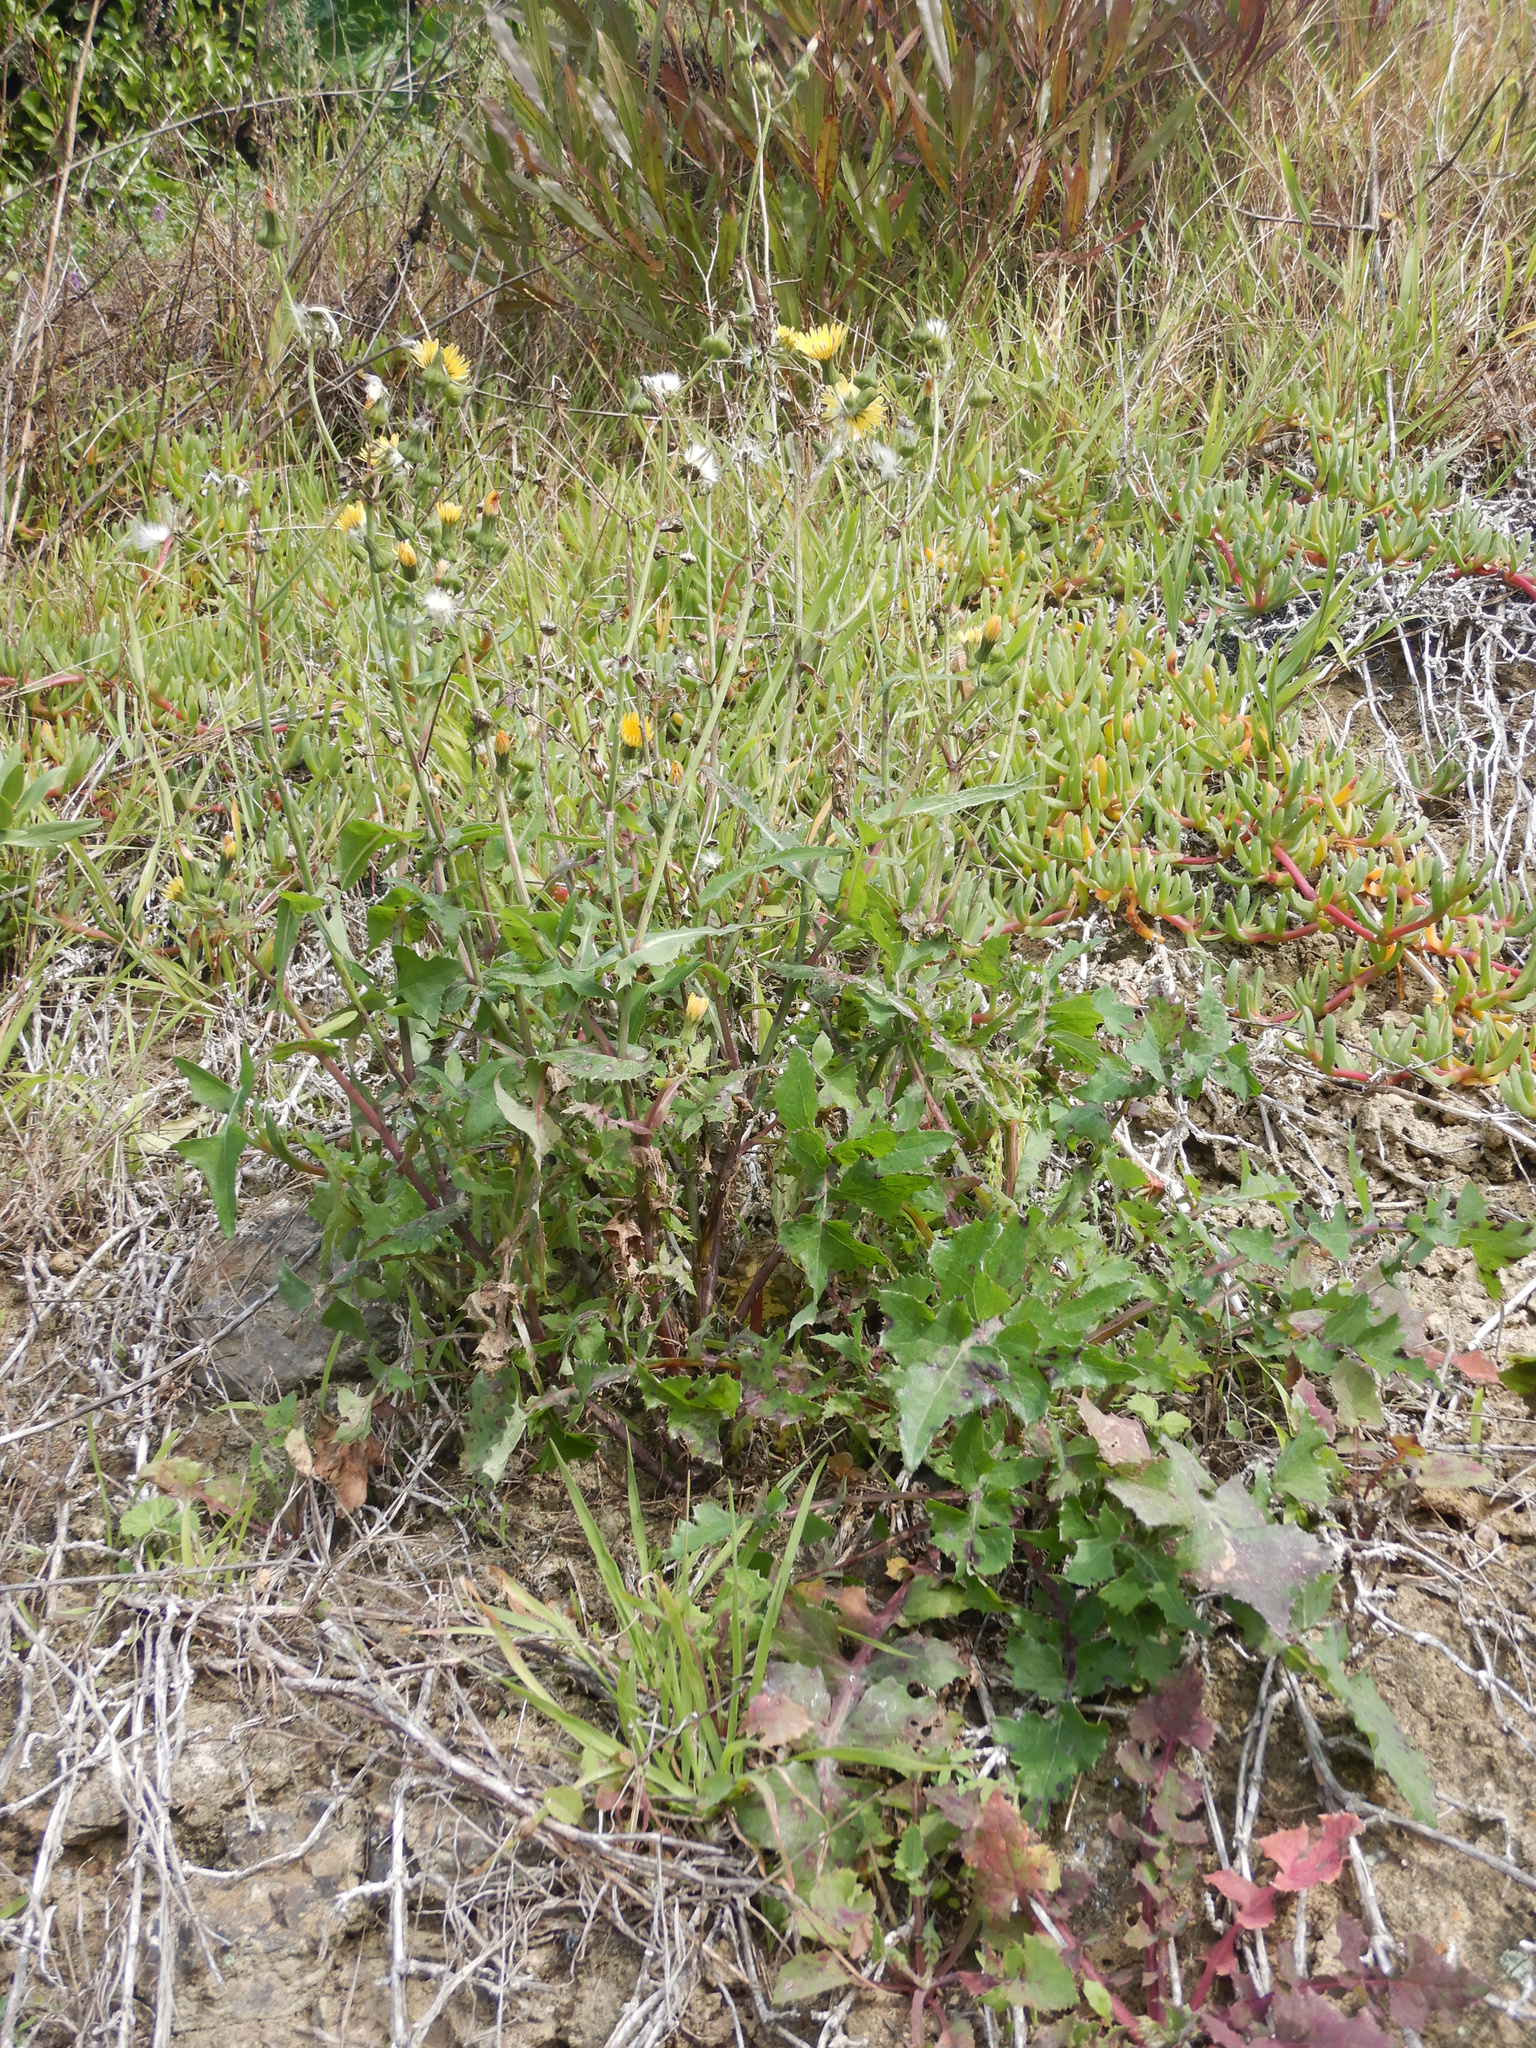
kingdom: Plantae
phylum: Tracheophyta
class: Magnoliopsida
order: Asterales
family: Asteraceae
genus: Sonchus
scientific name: Sonchus oleraceus
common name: Common sowthistle
